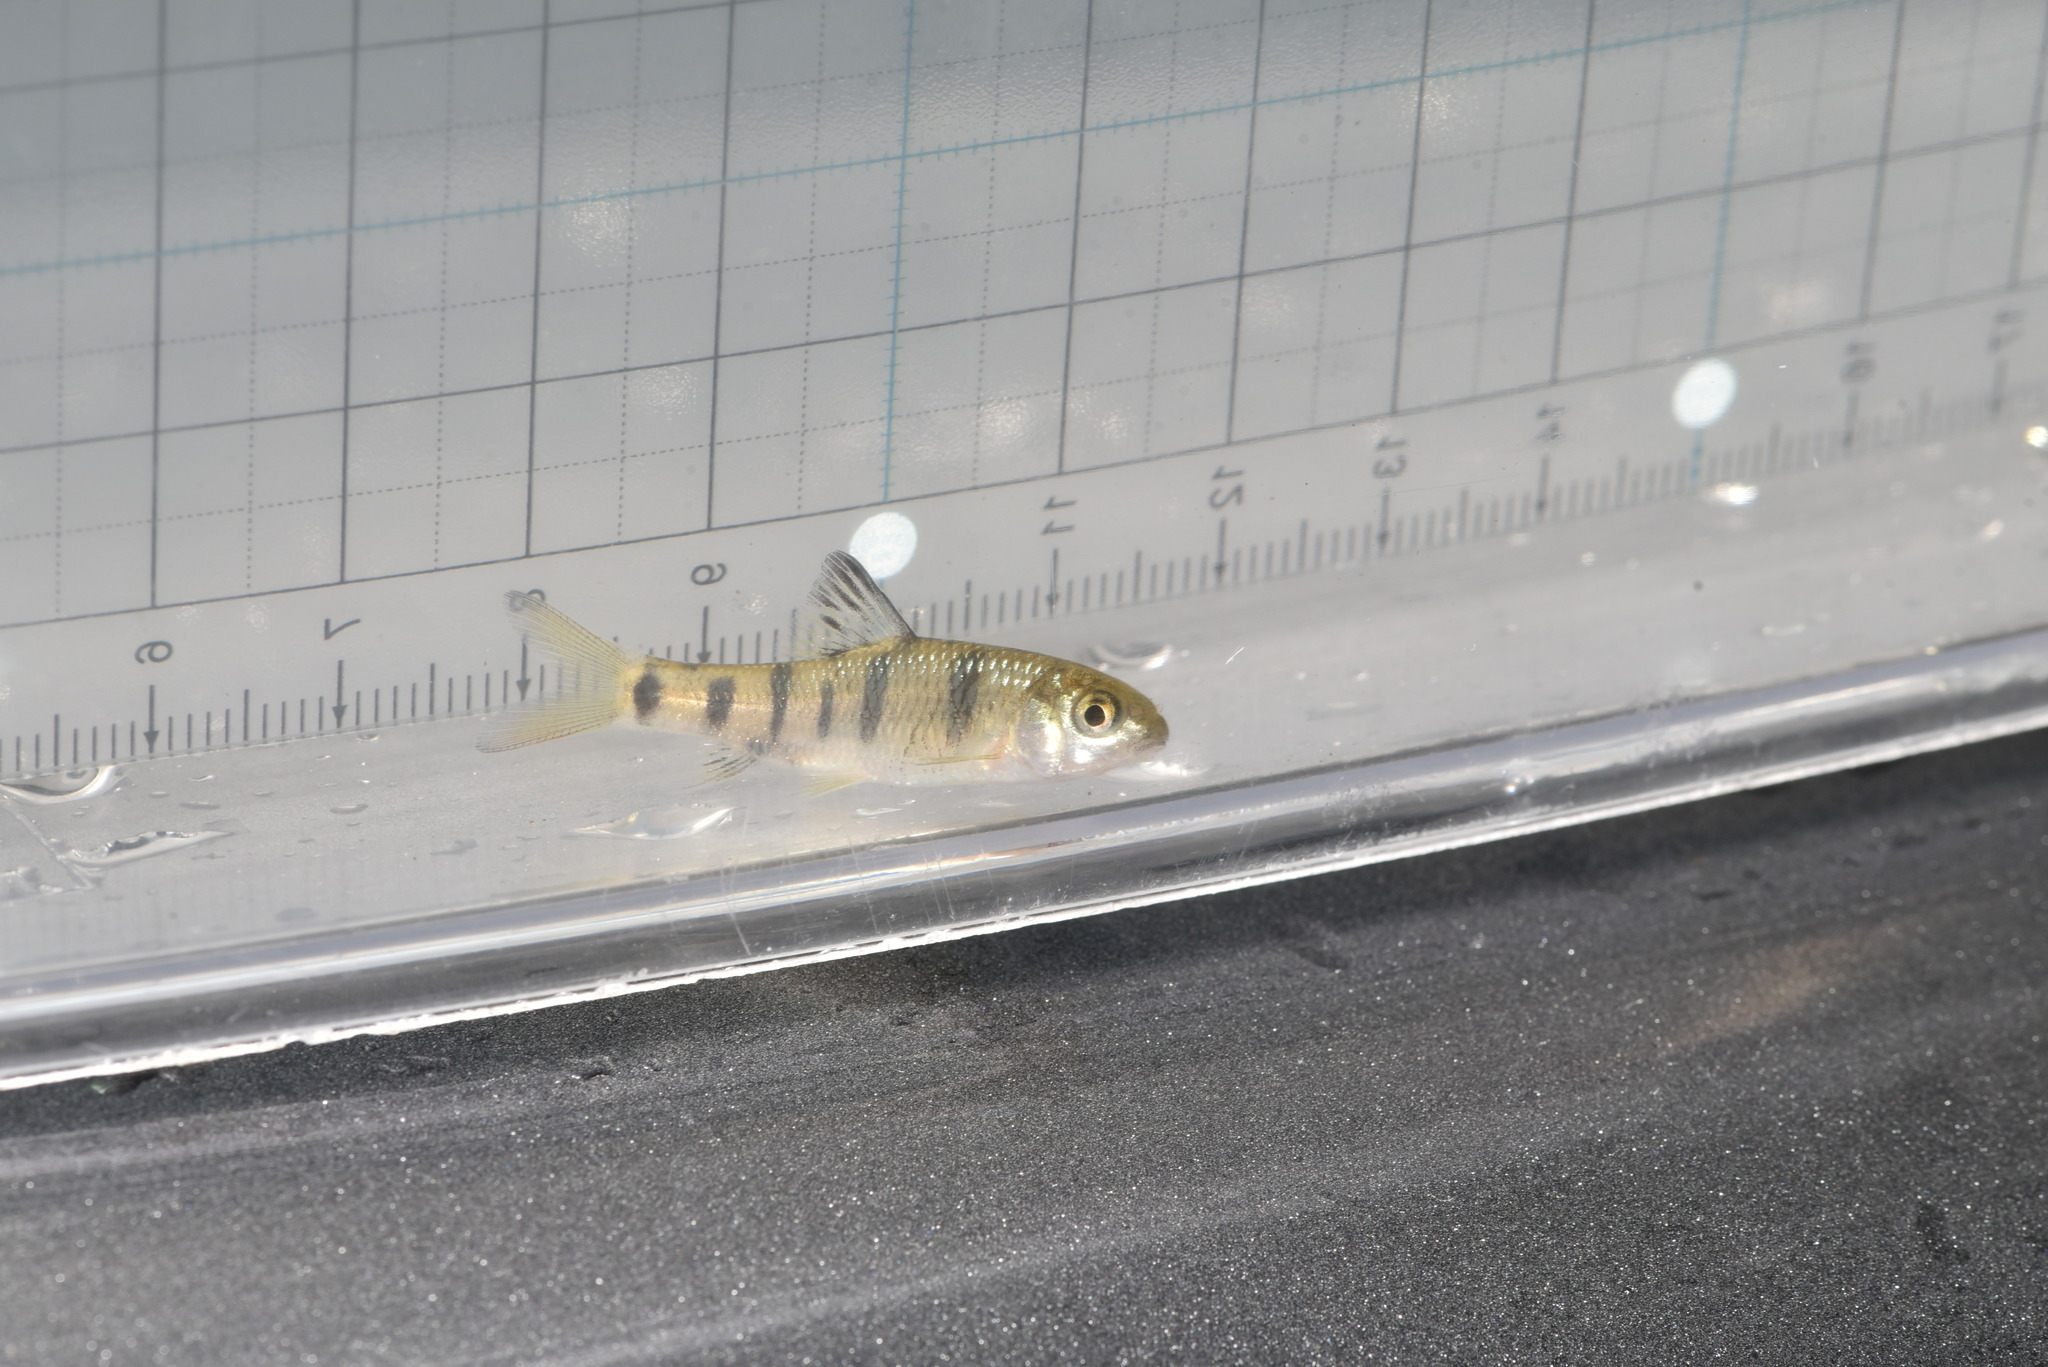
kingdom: Animalia
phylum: Chordata
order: Cypriniformes
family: Cyprinidae
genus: Acrossocheilus
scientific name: Acrossocheilus paradoxus
